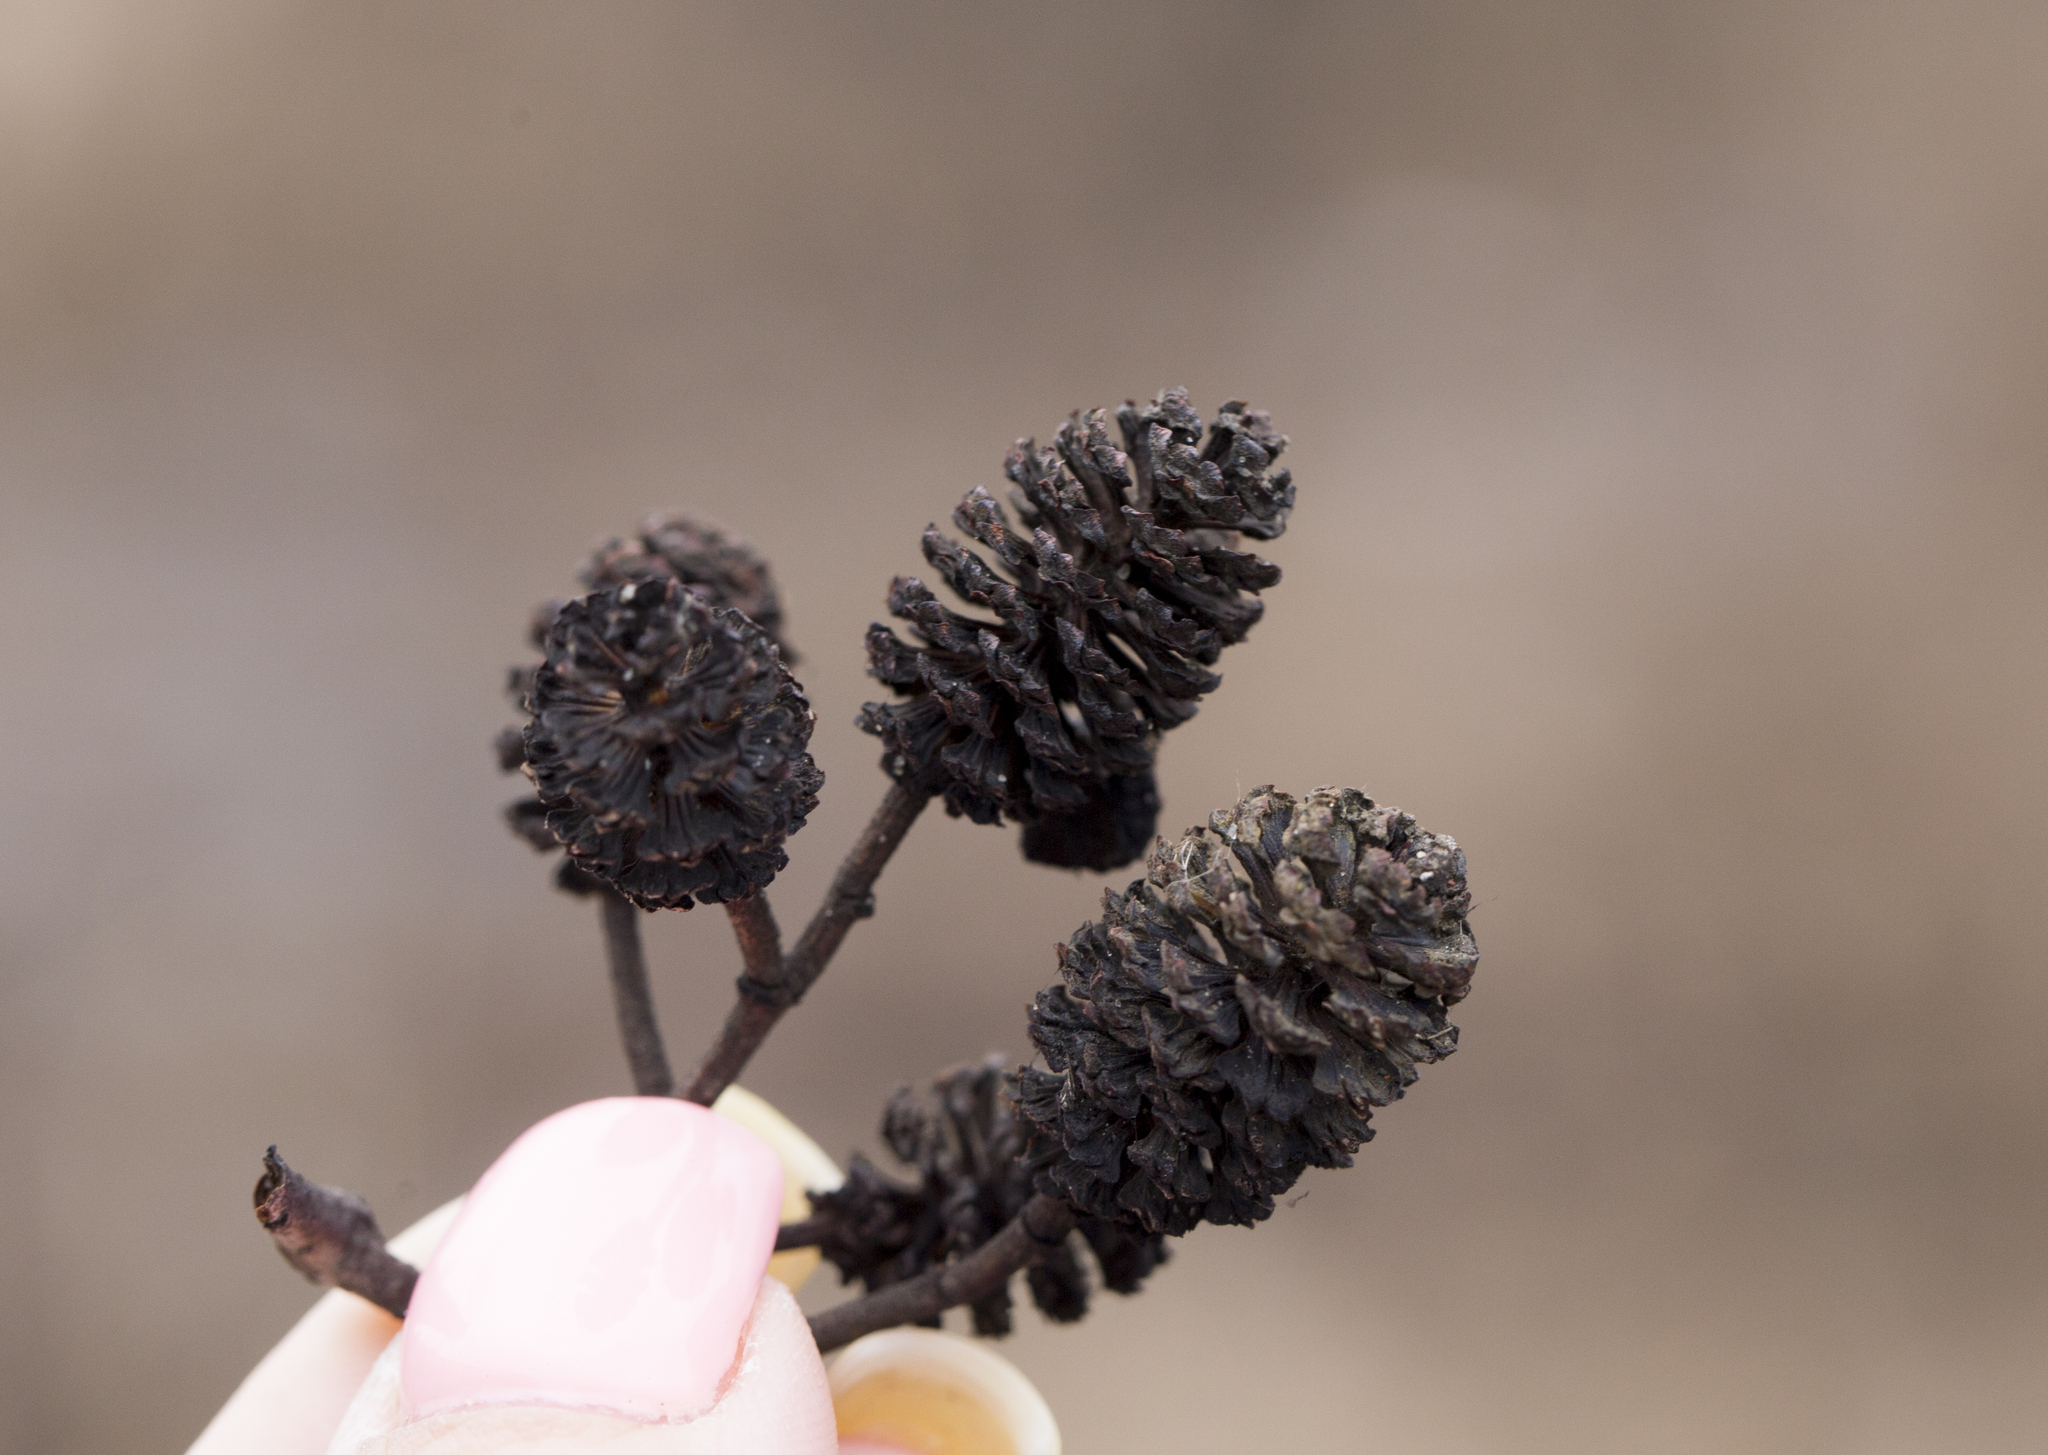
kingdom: Plantae
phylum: Tracheophyta
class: Magnoliopsida
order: Fagales
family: Betulaceae
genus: Alnus
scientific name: Alnus glutinosa
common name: Black alder
